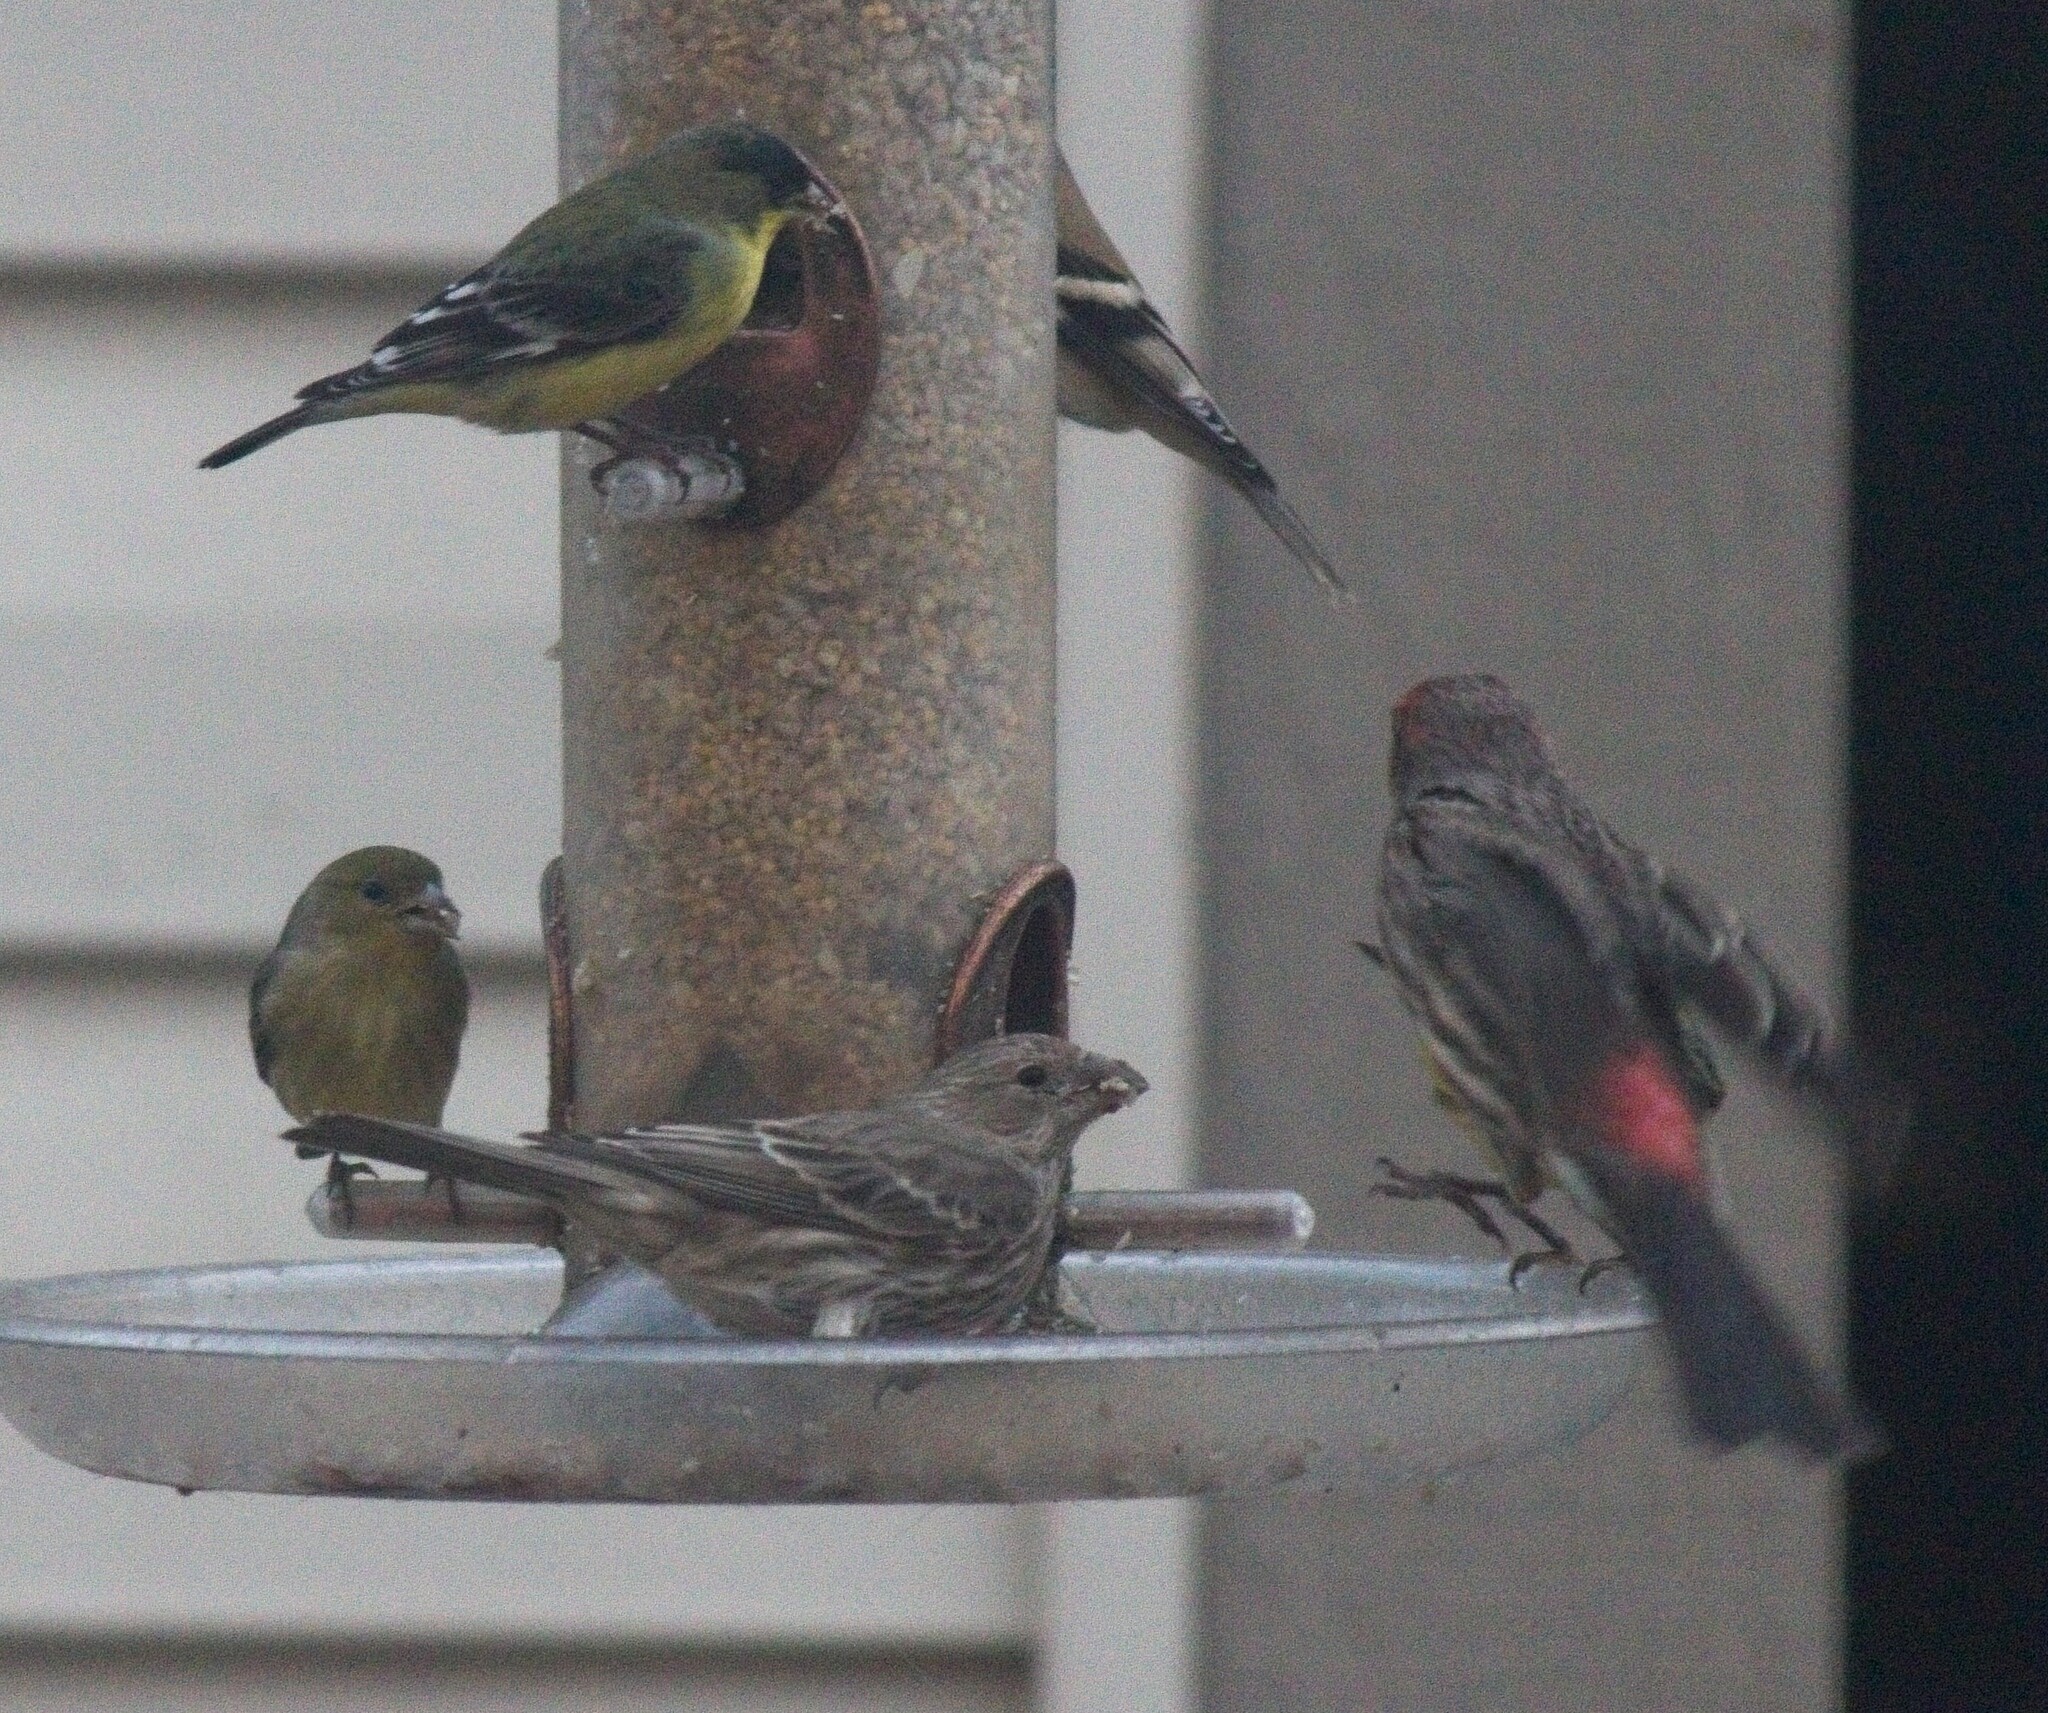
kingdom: Animalia
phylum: Chordata
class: Aves
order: Passeriformes
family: Fringillidae
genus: Spinus
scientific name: Spinus psaltria
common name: Lesser goldfinch
